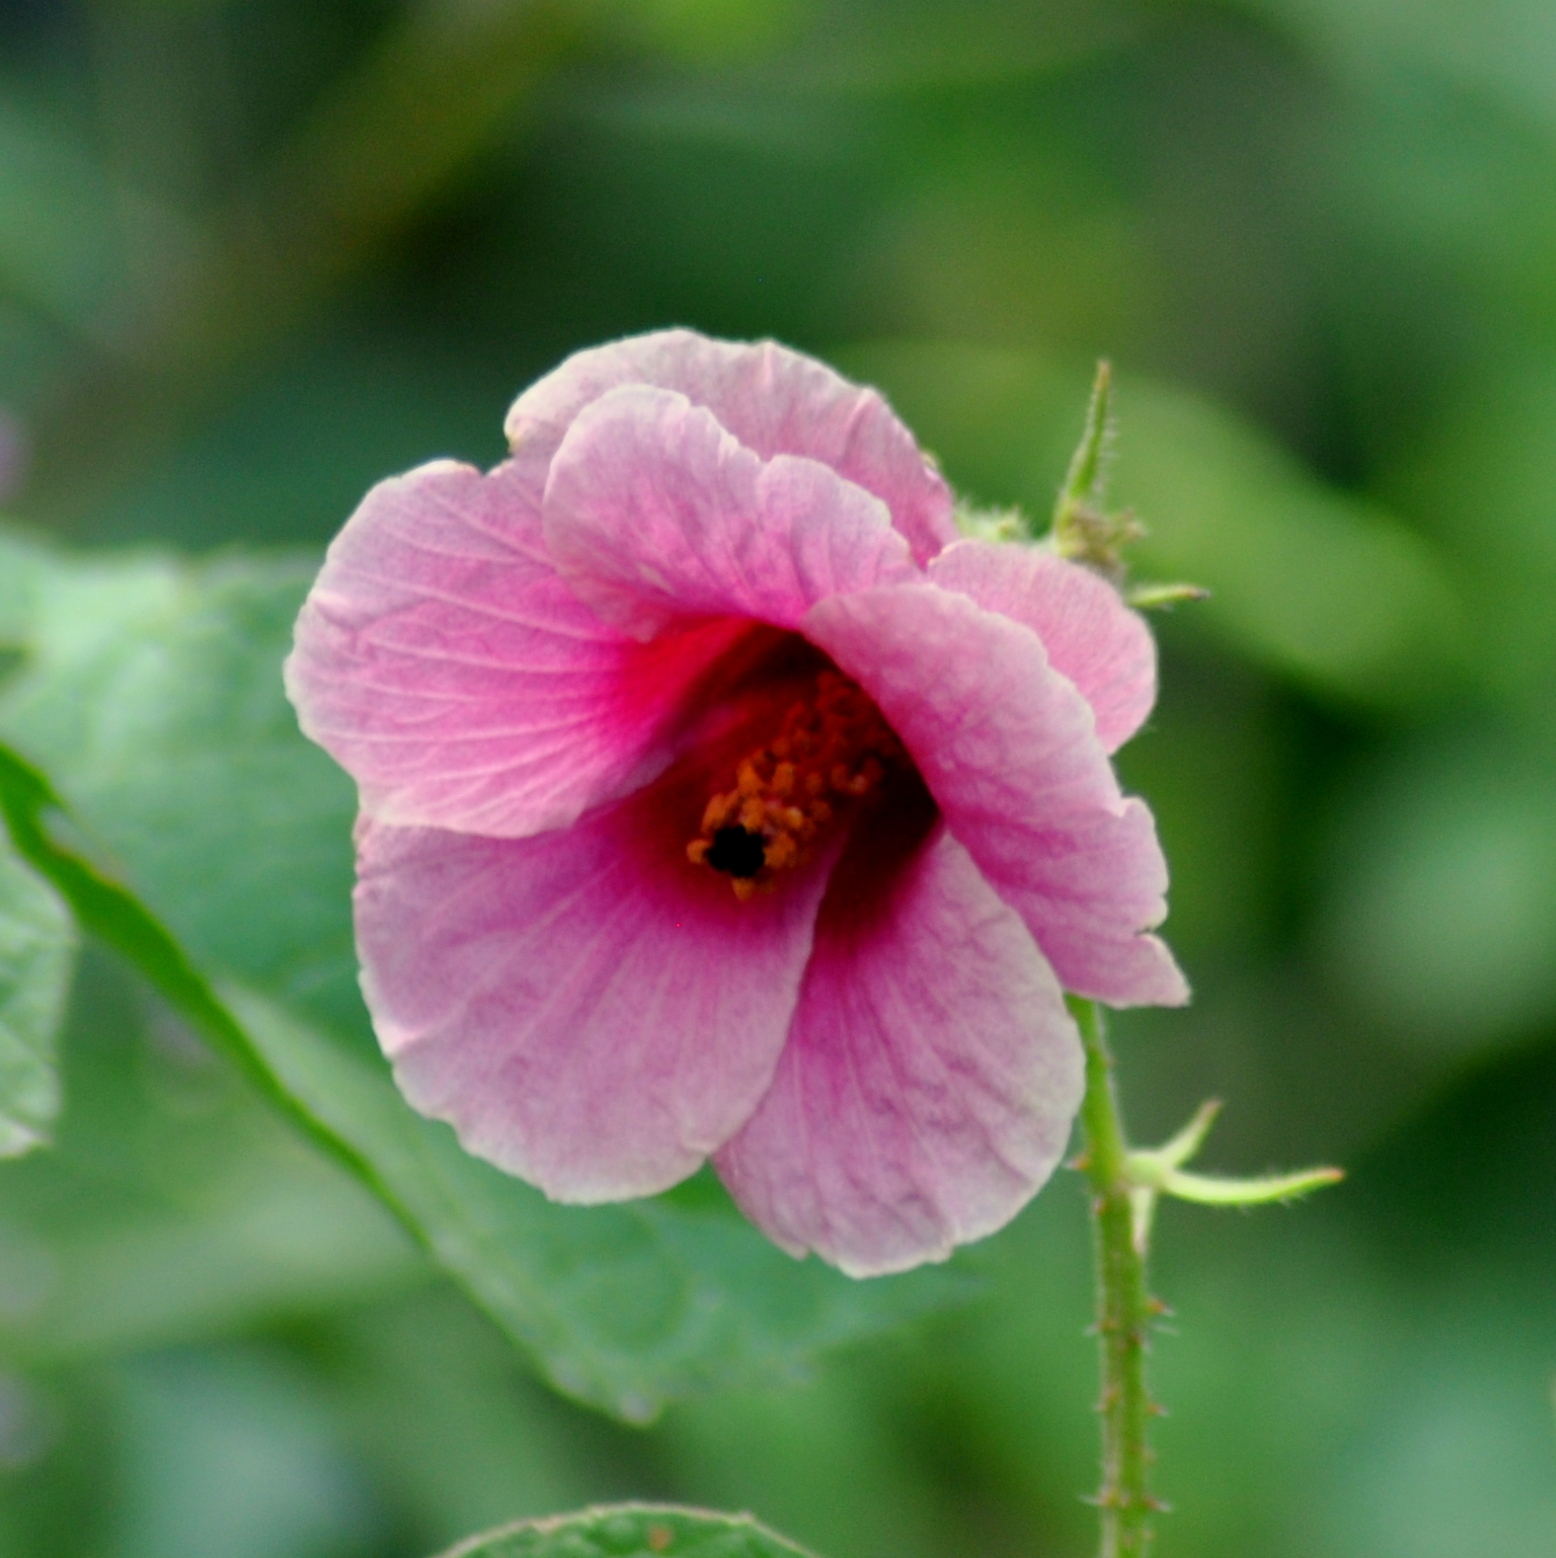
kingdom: Plantae
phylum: Tracheophyta
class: Magnoliopsida
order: Malvales
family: Malvaceae
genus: Hibiscus
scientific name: Hibiscus diversifolius
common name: Cape hibiscus
